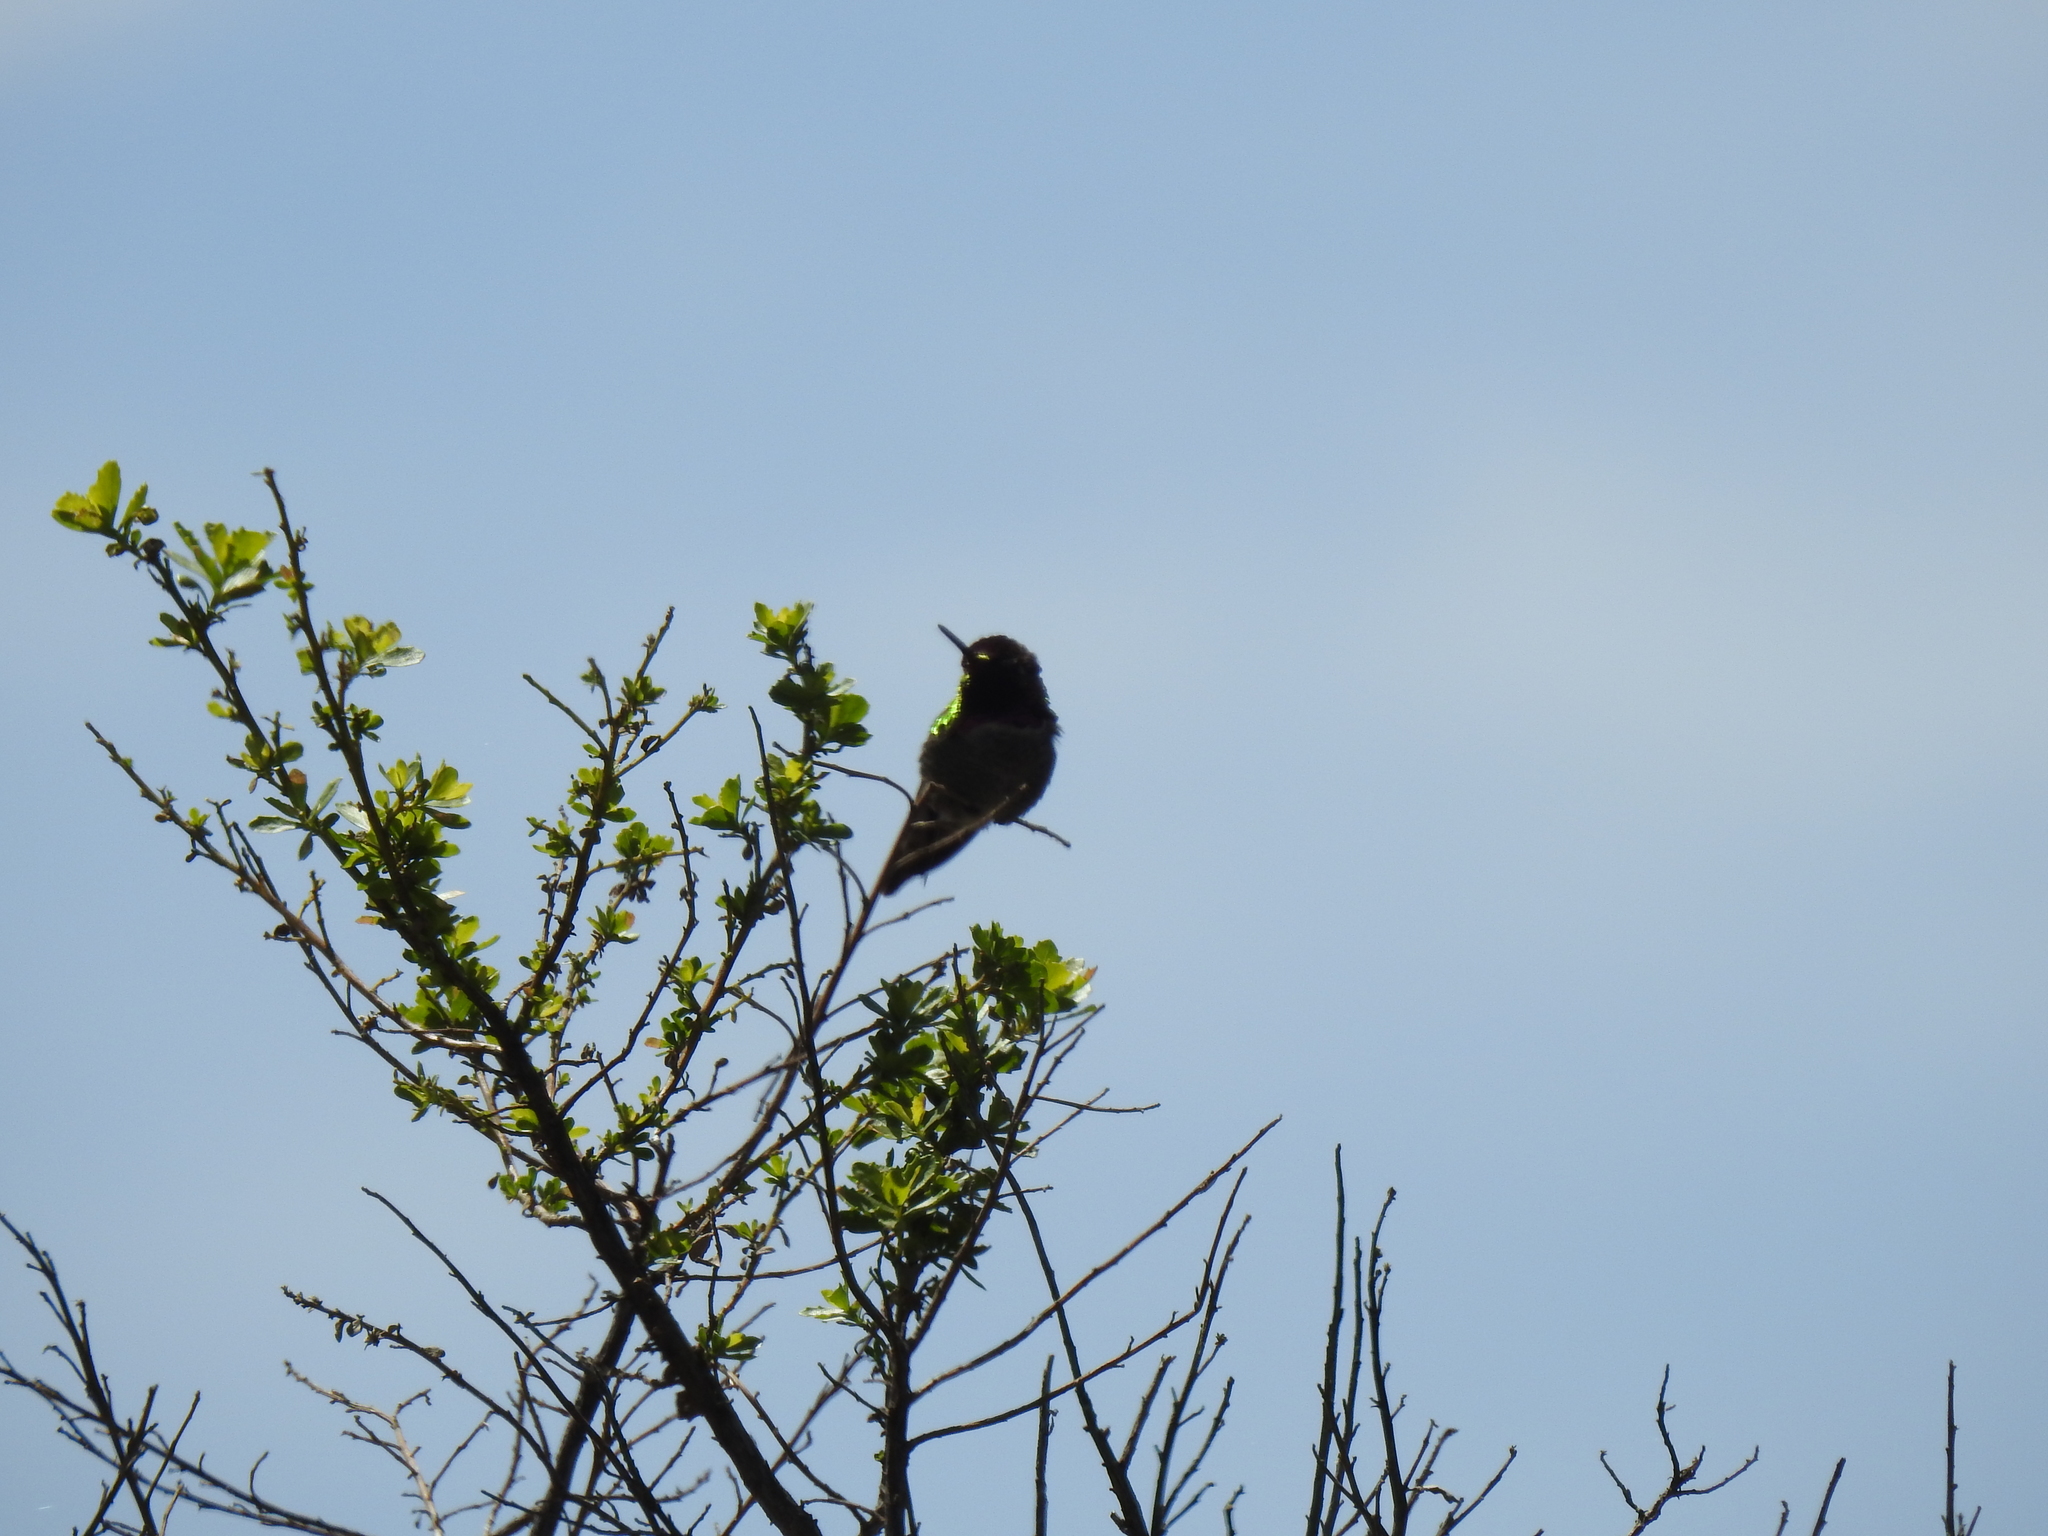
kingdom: Animalia
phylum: Chordata
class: Aves
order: Apodiformes
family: Trochilidae
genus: Calypte
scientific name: Calypte anna
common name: Anna's hummingbird
